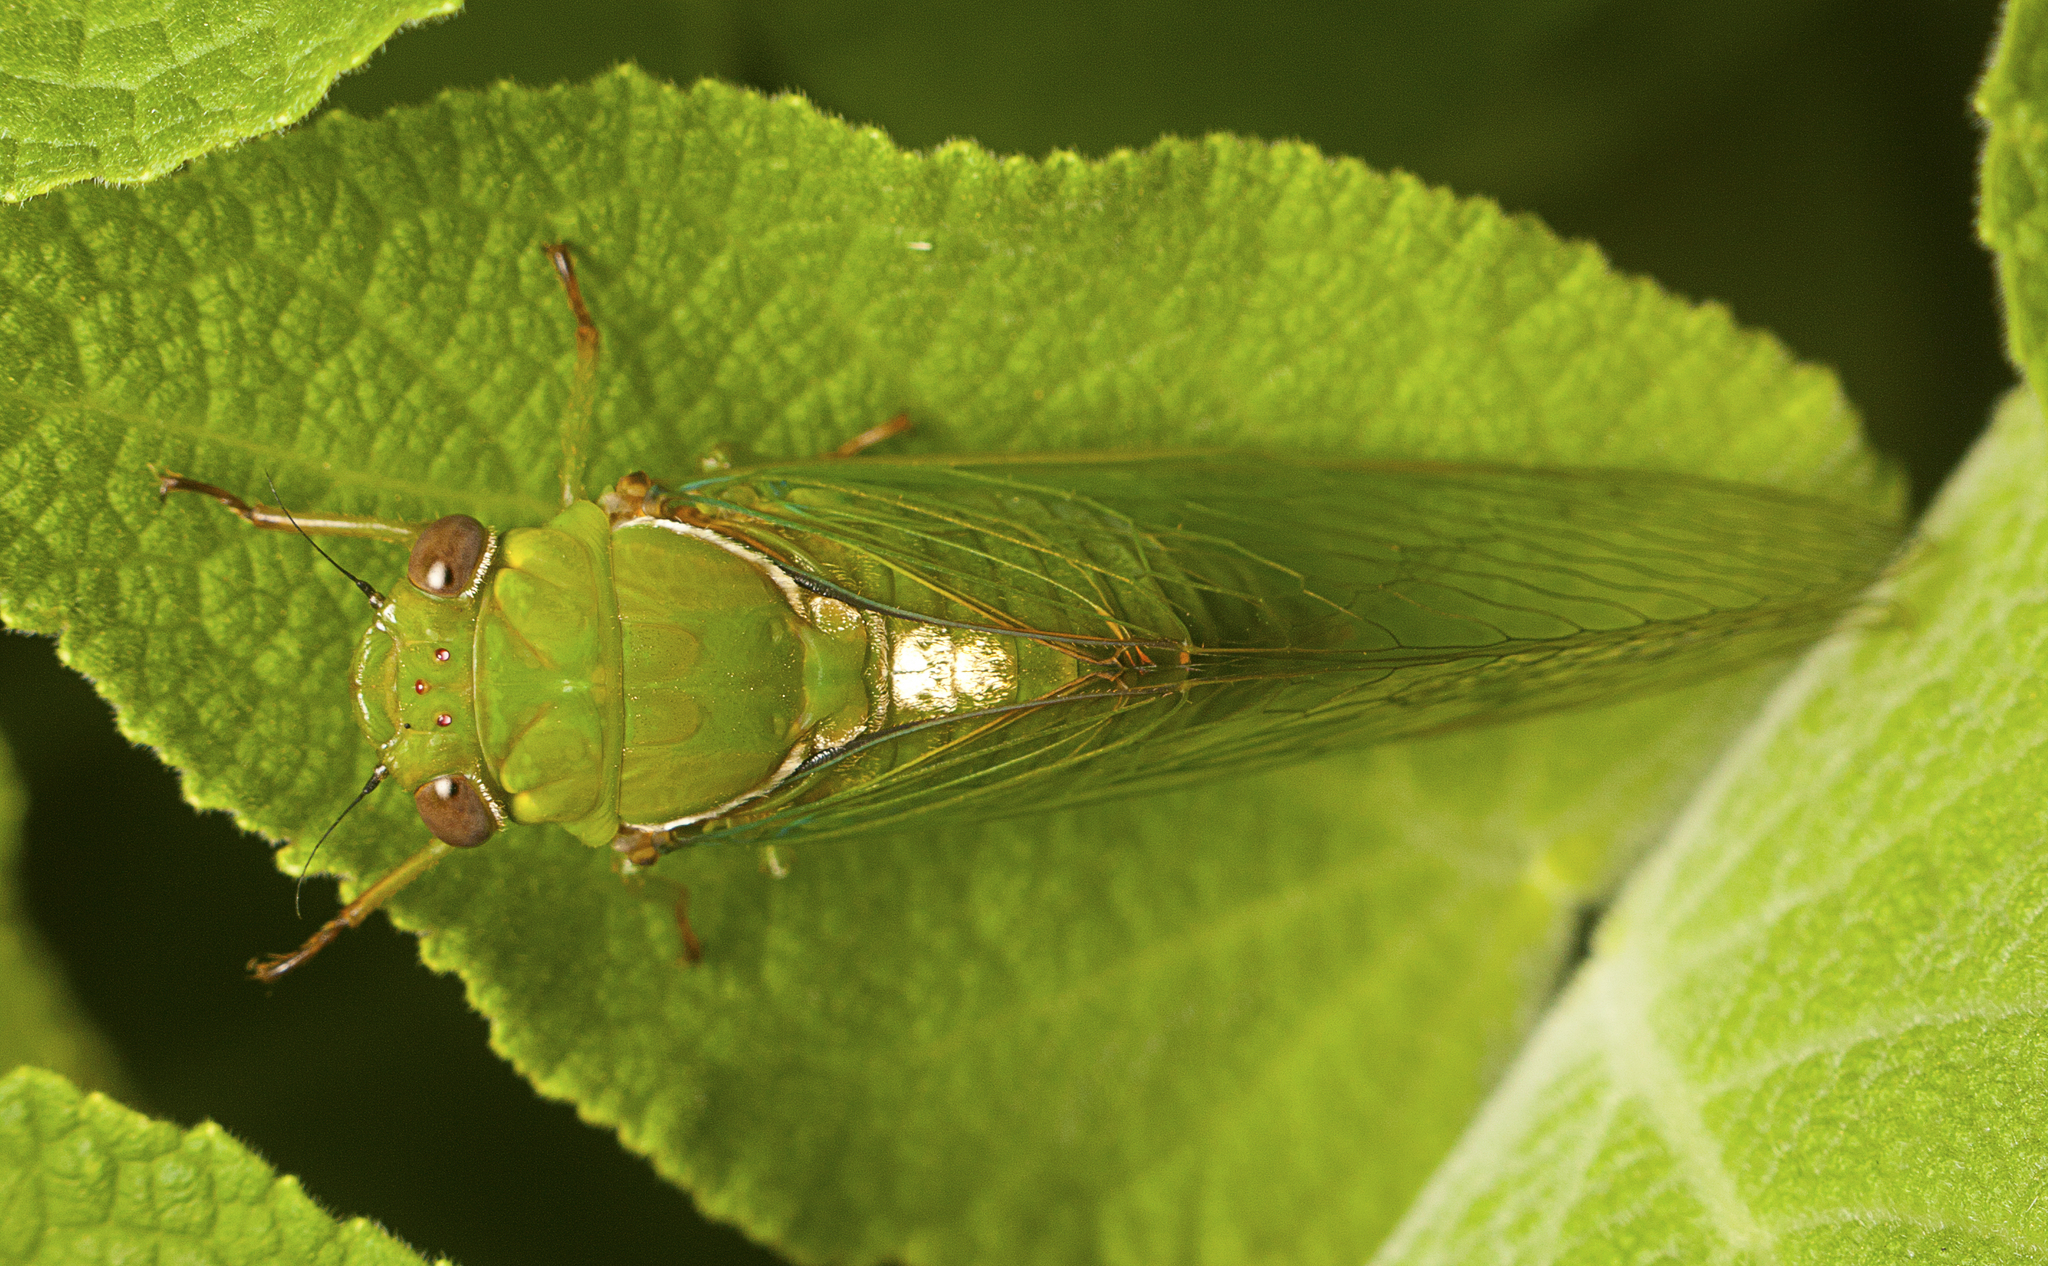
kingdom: Animalia
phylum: Arthropoda
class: Insecta
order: Hemiptera
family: Cicadidae
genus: Glaucopsaltria
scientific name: Glaucopsaltria viridis
